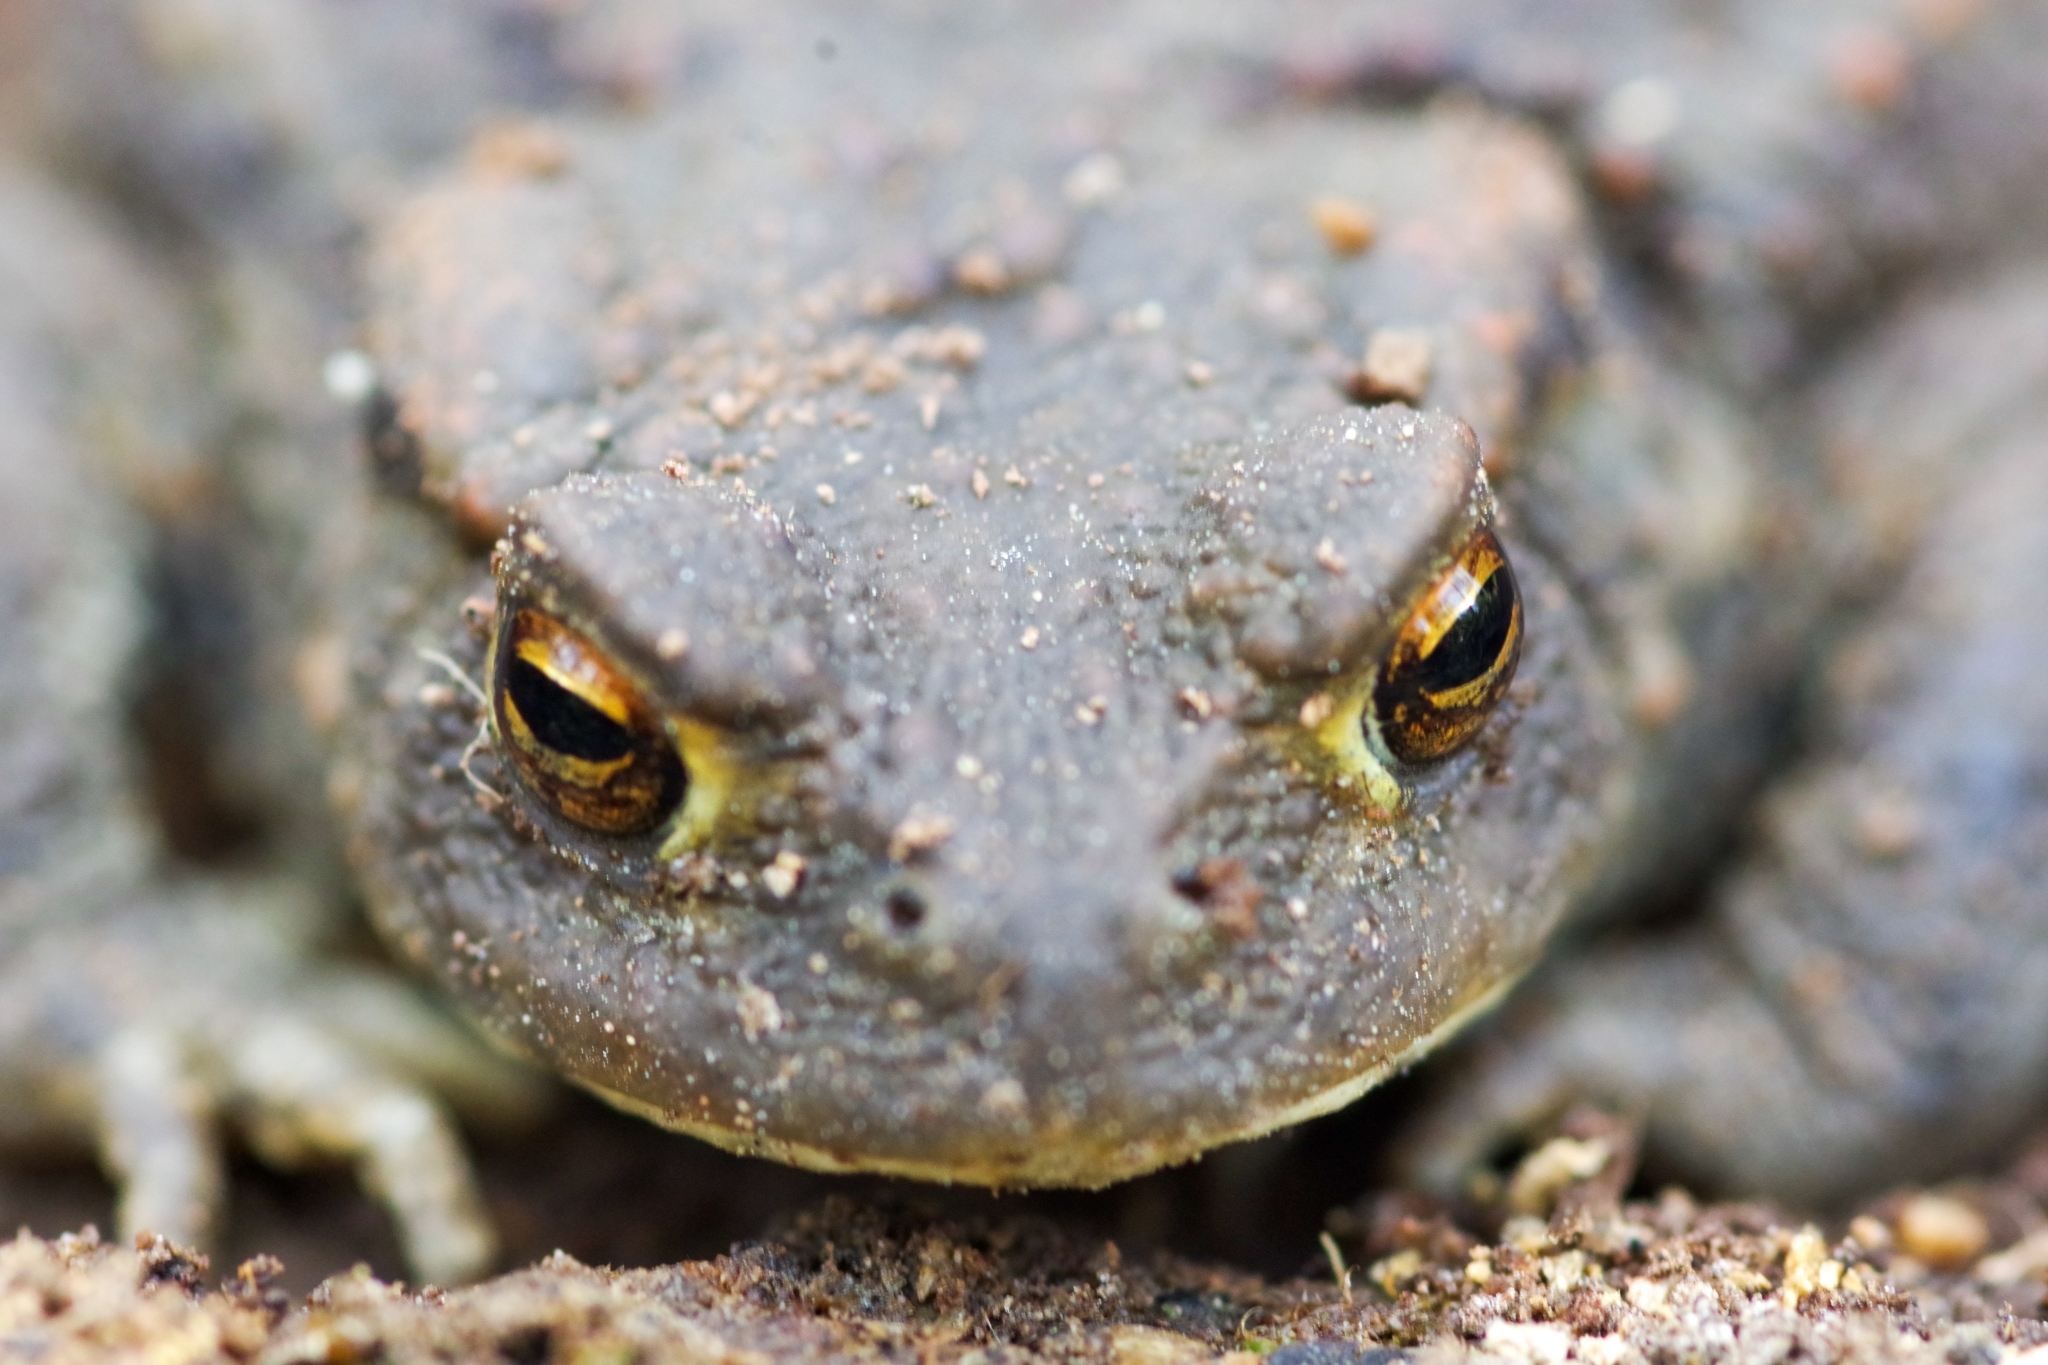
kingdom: Animalia
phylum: Chordata
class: Amphibia
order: Anura
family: Bufonidae
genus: Bufo
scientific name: Bufo bufo
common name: Common toad
